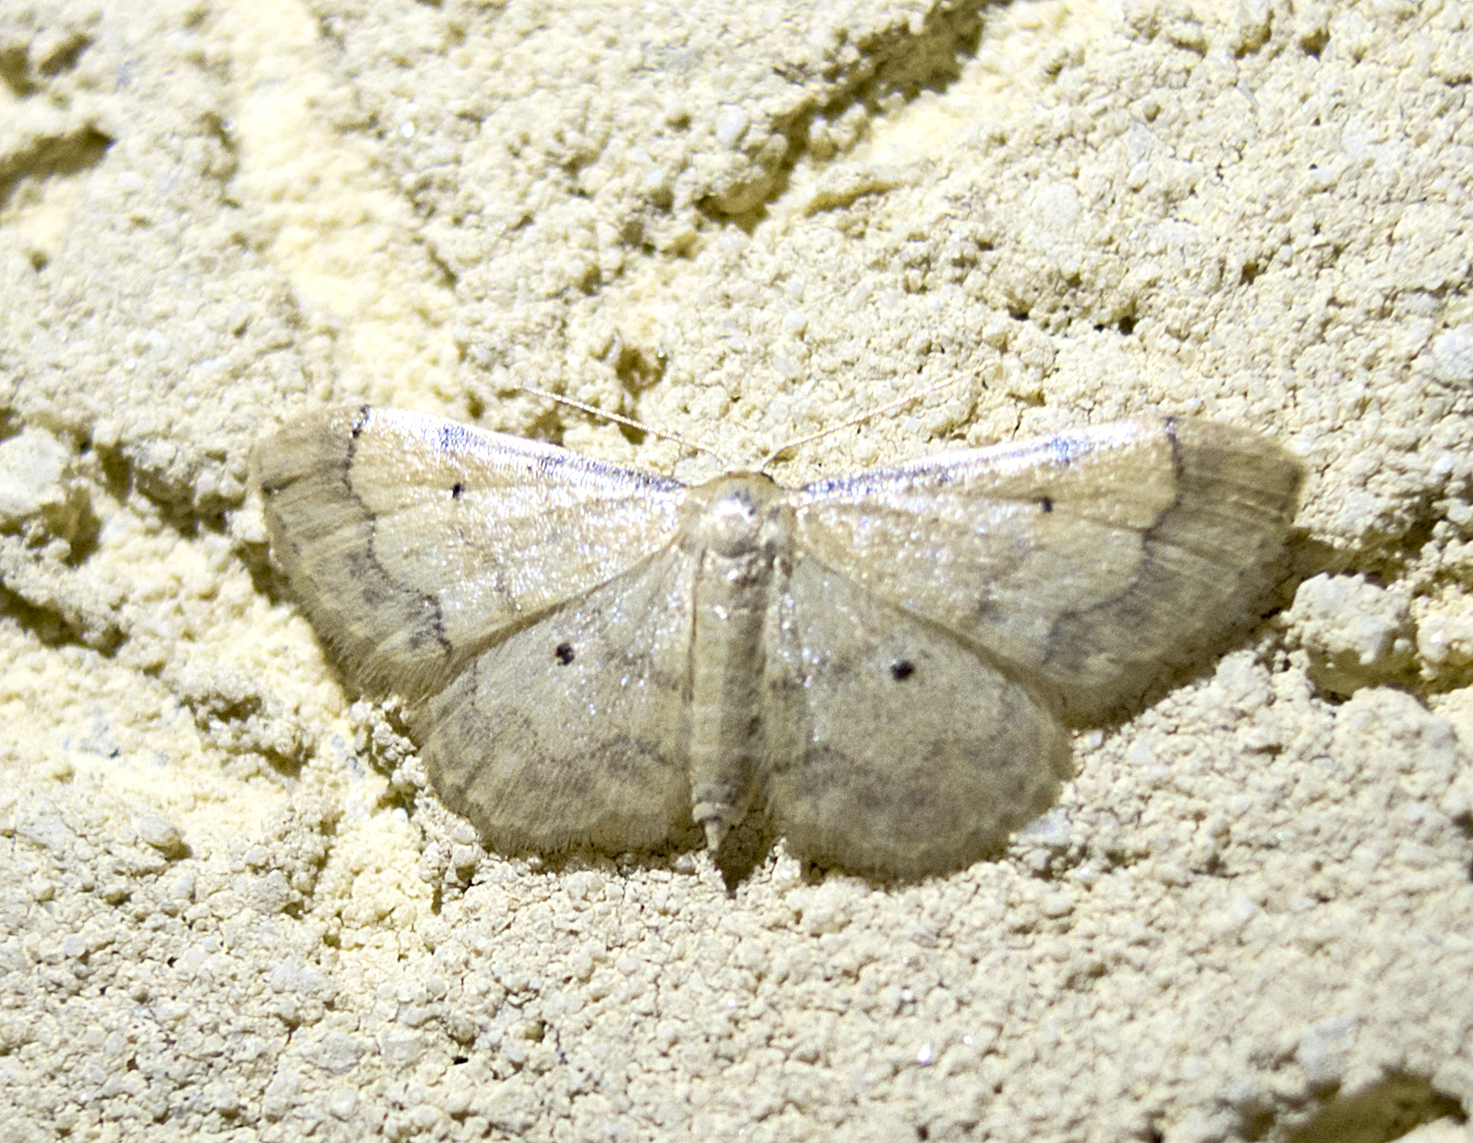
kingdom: Animalia
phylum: Arthropoda
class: Insecta
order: Lepidoptera
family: Geometridae
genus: Idaea
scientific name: Idaea politaria
